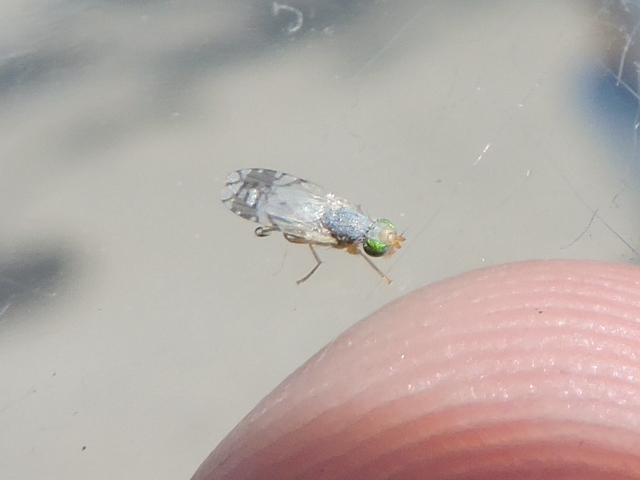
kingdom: Animalia
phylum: Arthropoda
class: Insecta
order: Diptera
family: Tephritidae
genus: Trupanea
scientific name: Trupanea vicina
